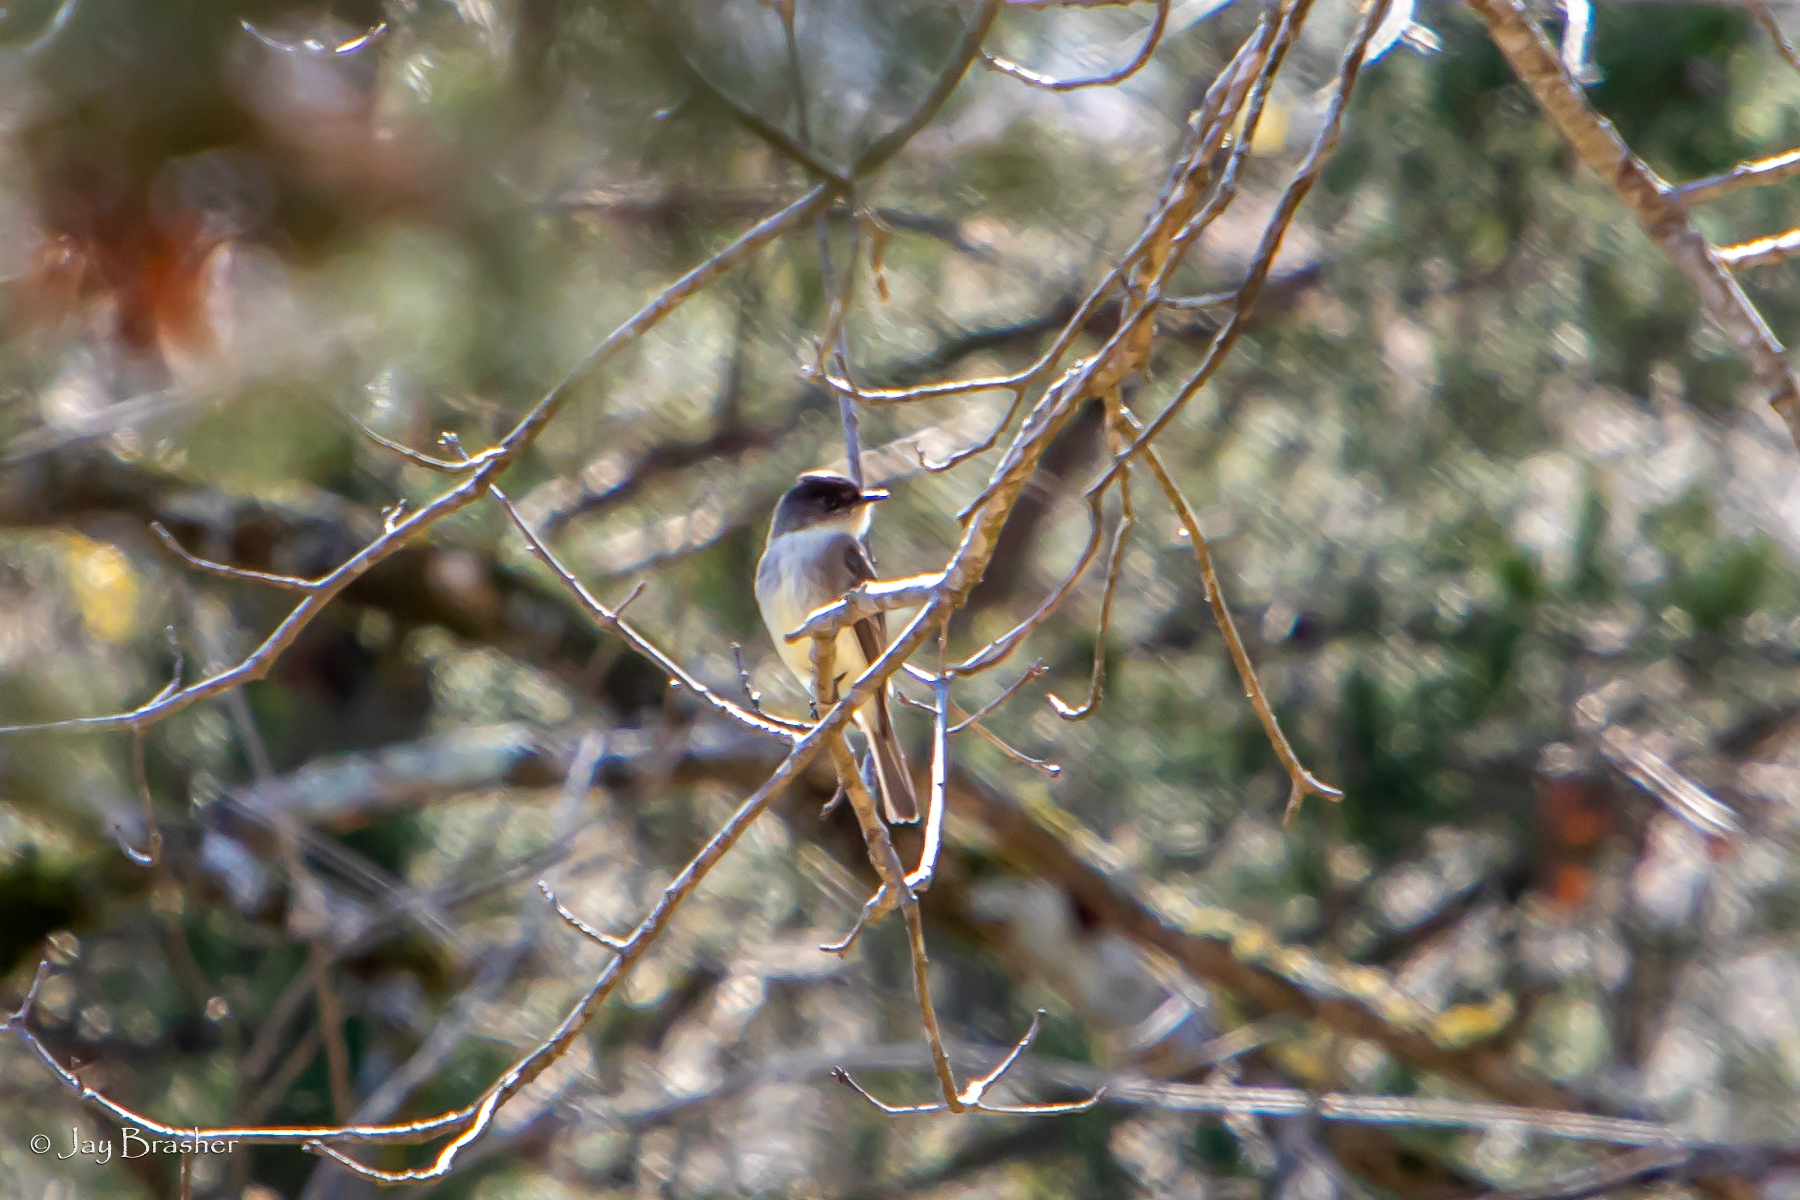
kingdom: Animalia
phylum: Chordata
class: Aves
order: Passeriformes
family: Tyrannidae
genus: Sayornis
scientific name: Sayornis phoebe
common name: Eastern phoebe
